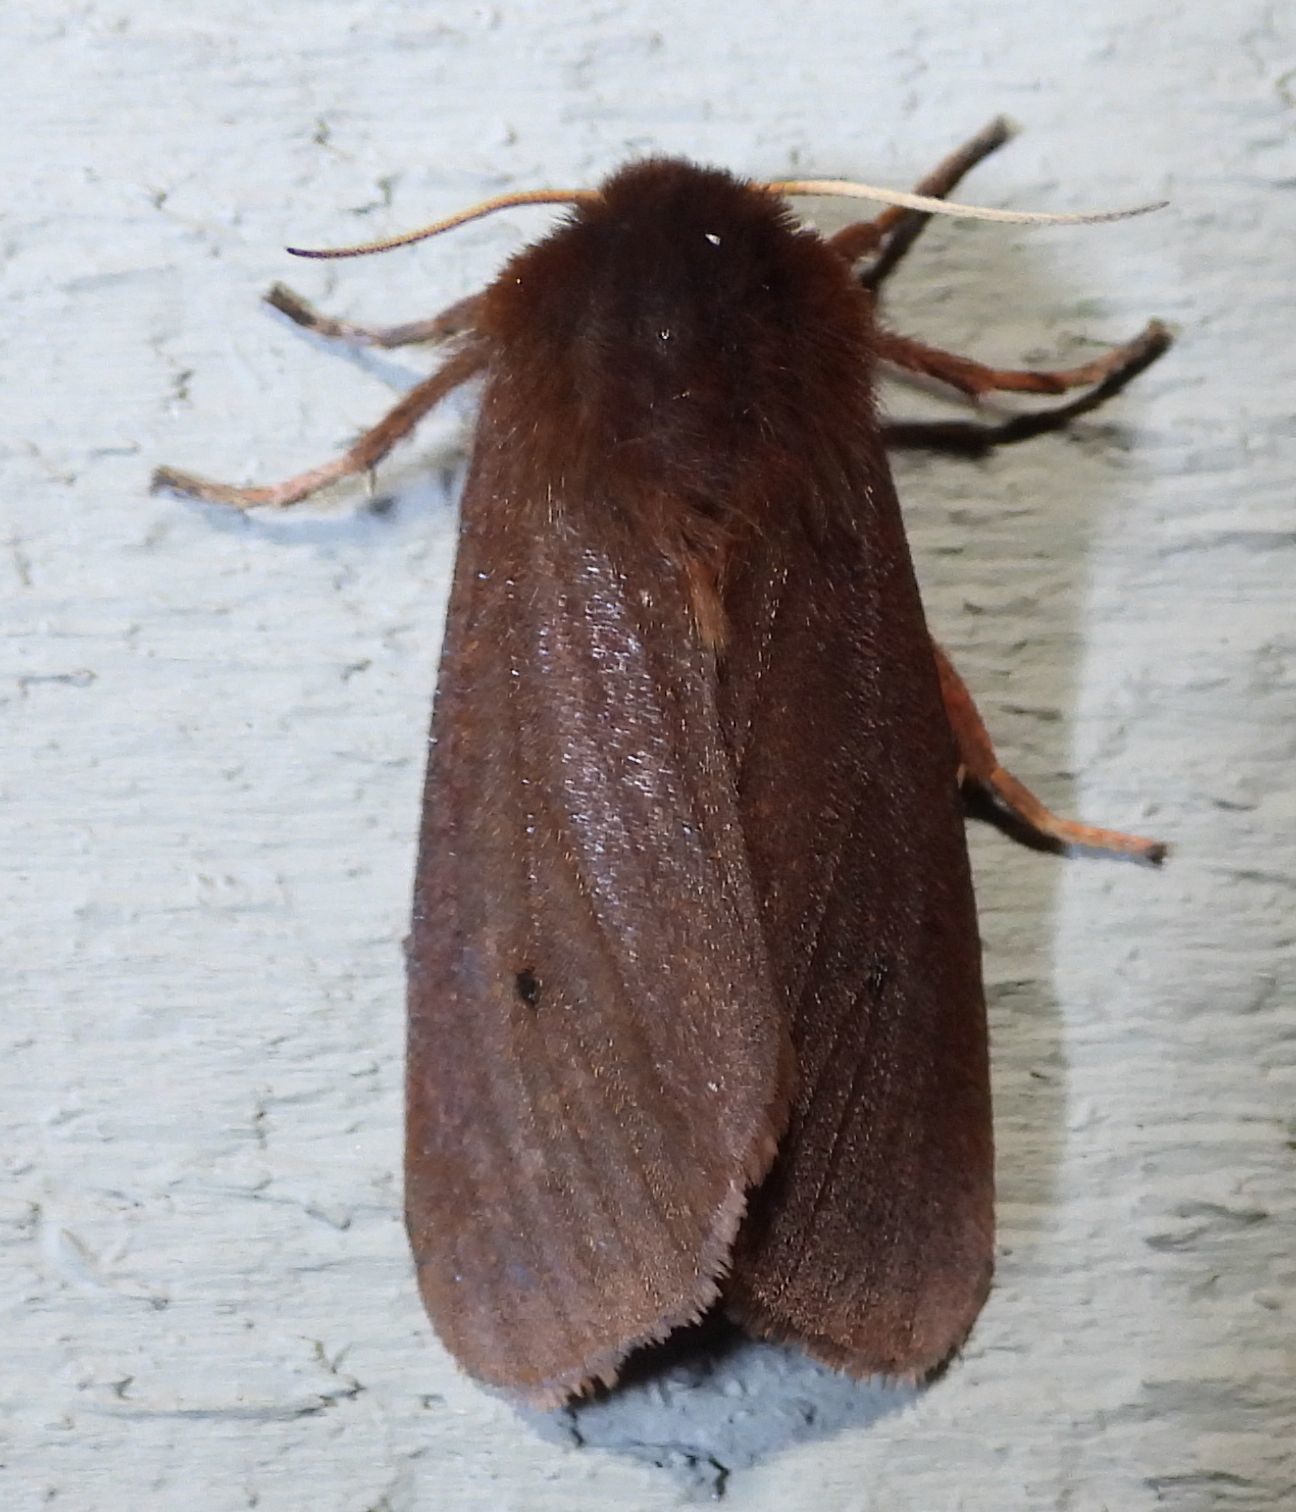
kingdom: Animalia
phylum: Arthropoda
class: Insecta
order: Lepidoptera
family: Erebidae
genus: Phragmatobia
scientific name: Phragmatobia fuliginosa
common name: Ruby tiger
